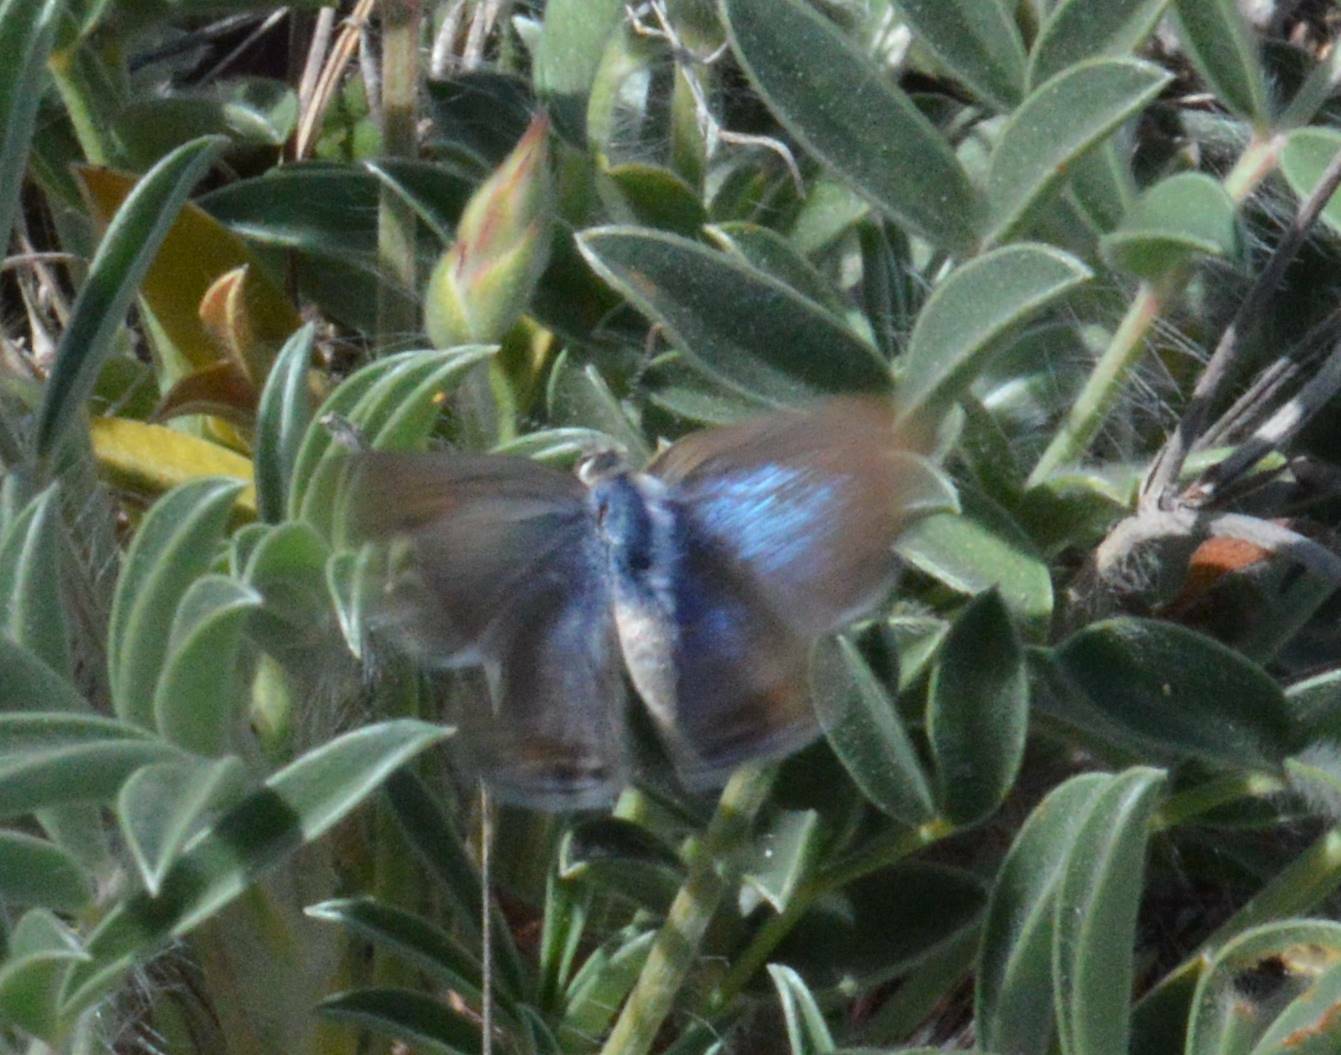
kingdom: Animalia
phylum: Arthropoda
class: Insecta
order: Lepidoptera
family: Lycaenidae
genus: Lampides
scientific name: Lampides boeticus
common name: Long-tailed blue
